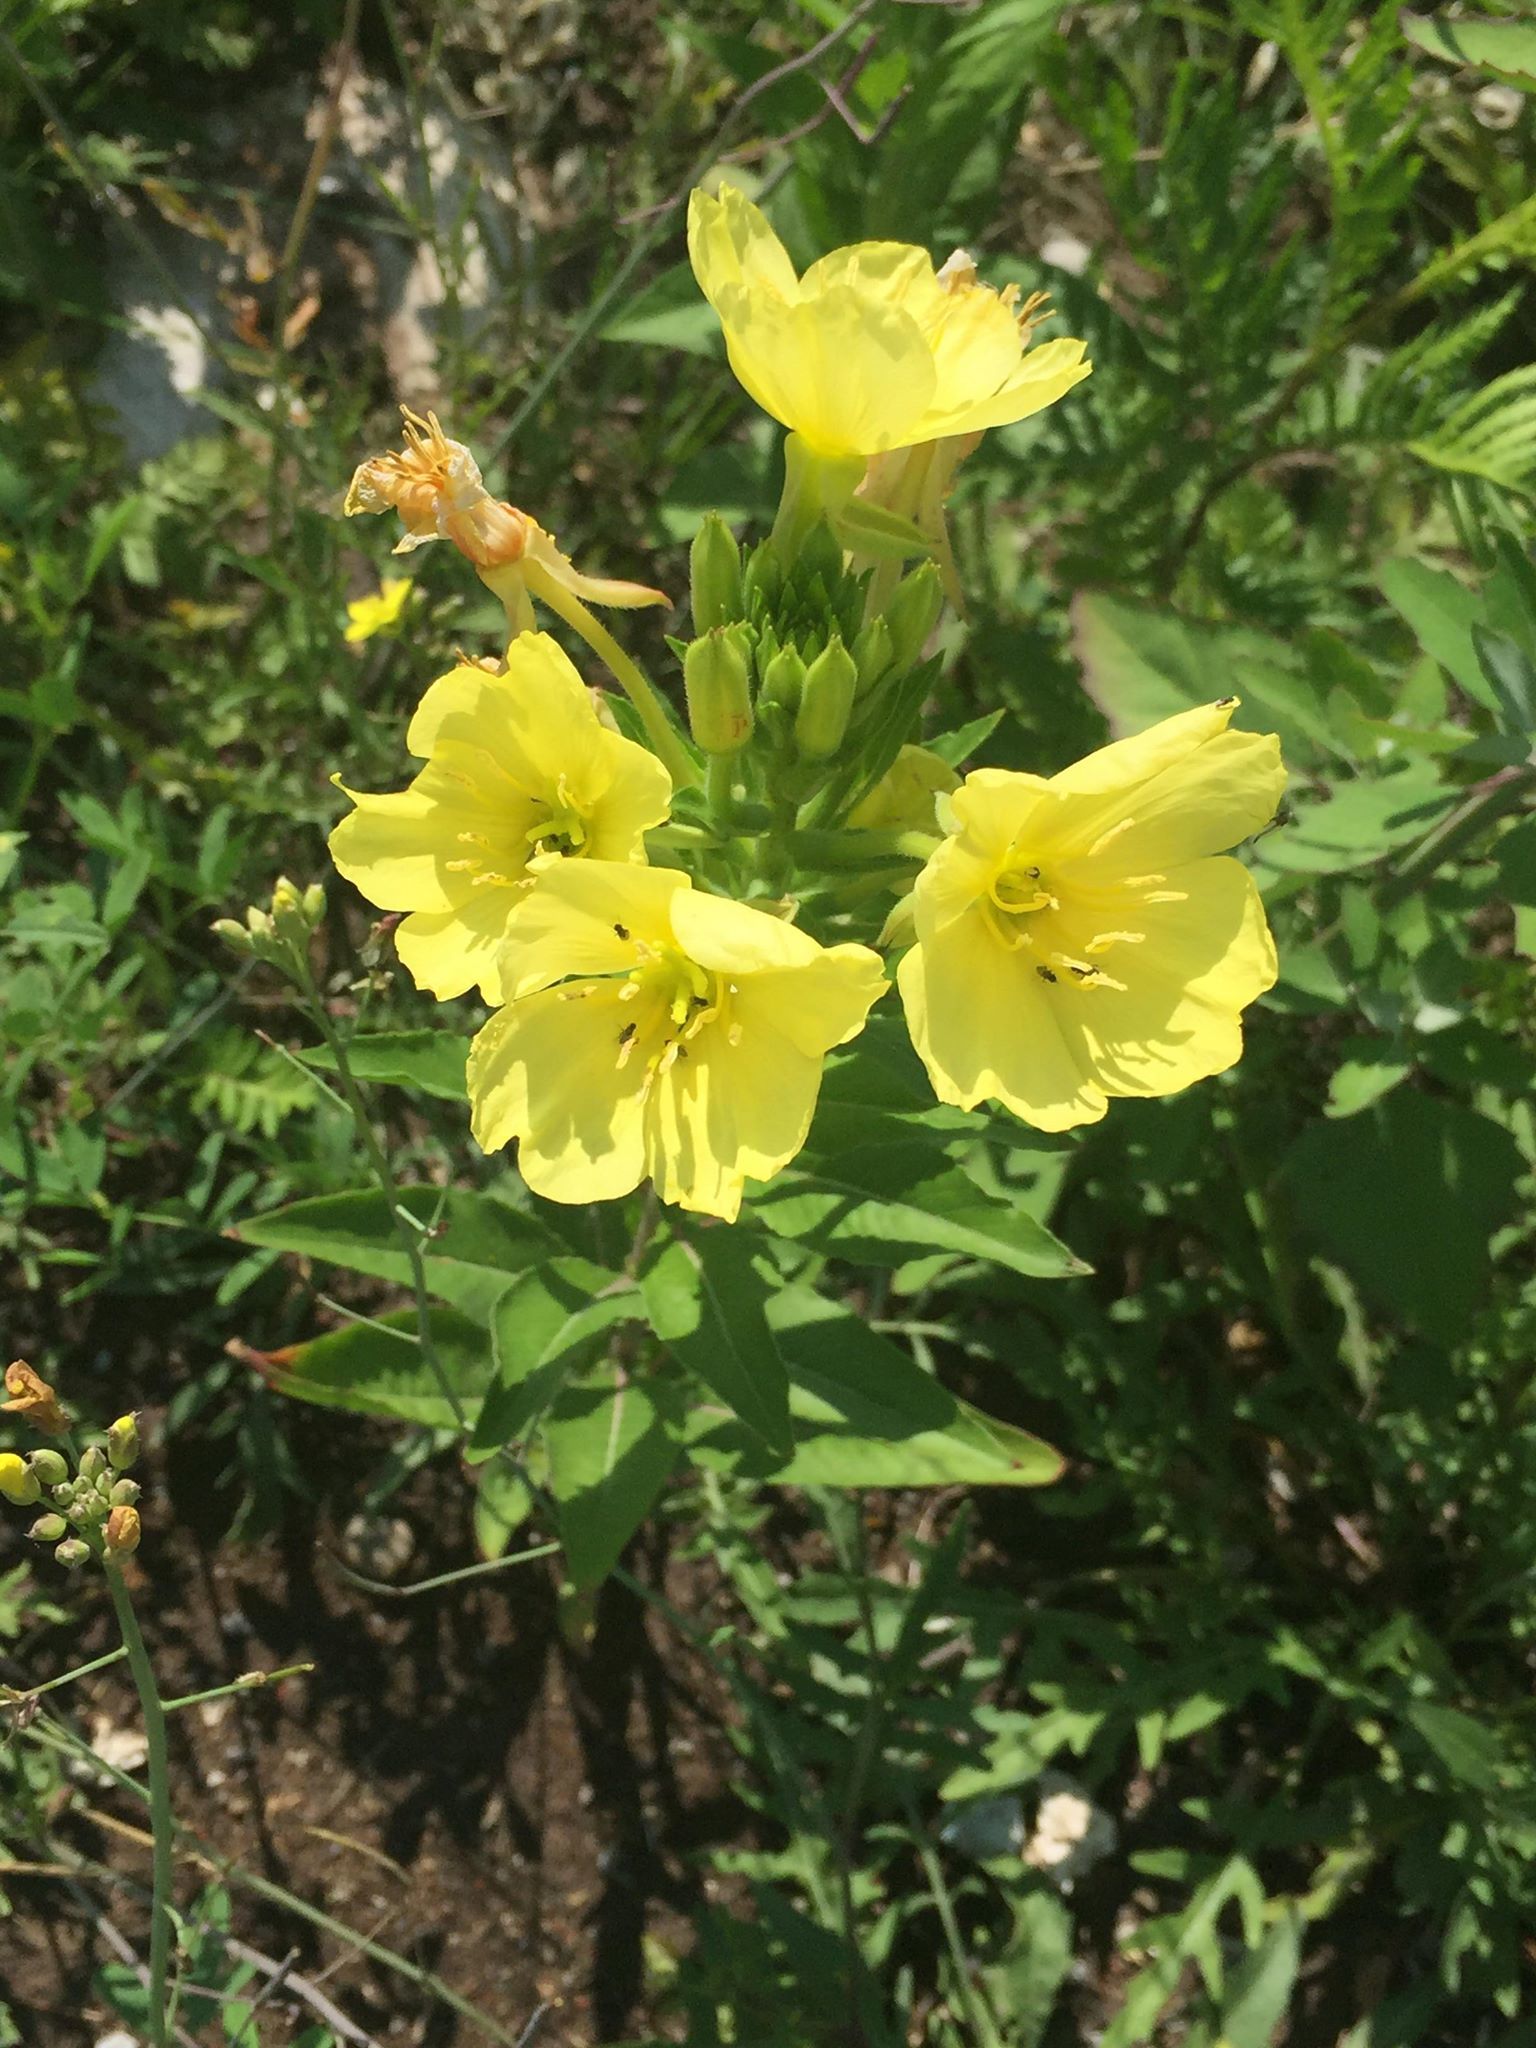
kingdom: Plantae
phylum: Tracheophyta
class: Magnoliopsida
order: Myrtales
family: Onagraceae
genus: Oenothera
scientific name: Oenothera parviflora
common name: Least evening-primrose
